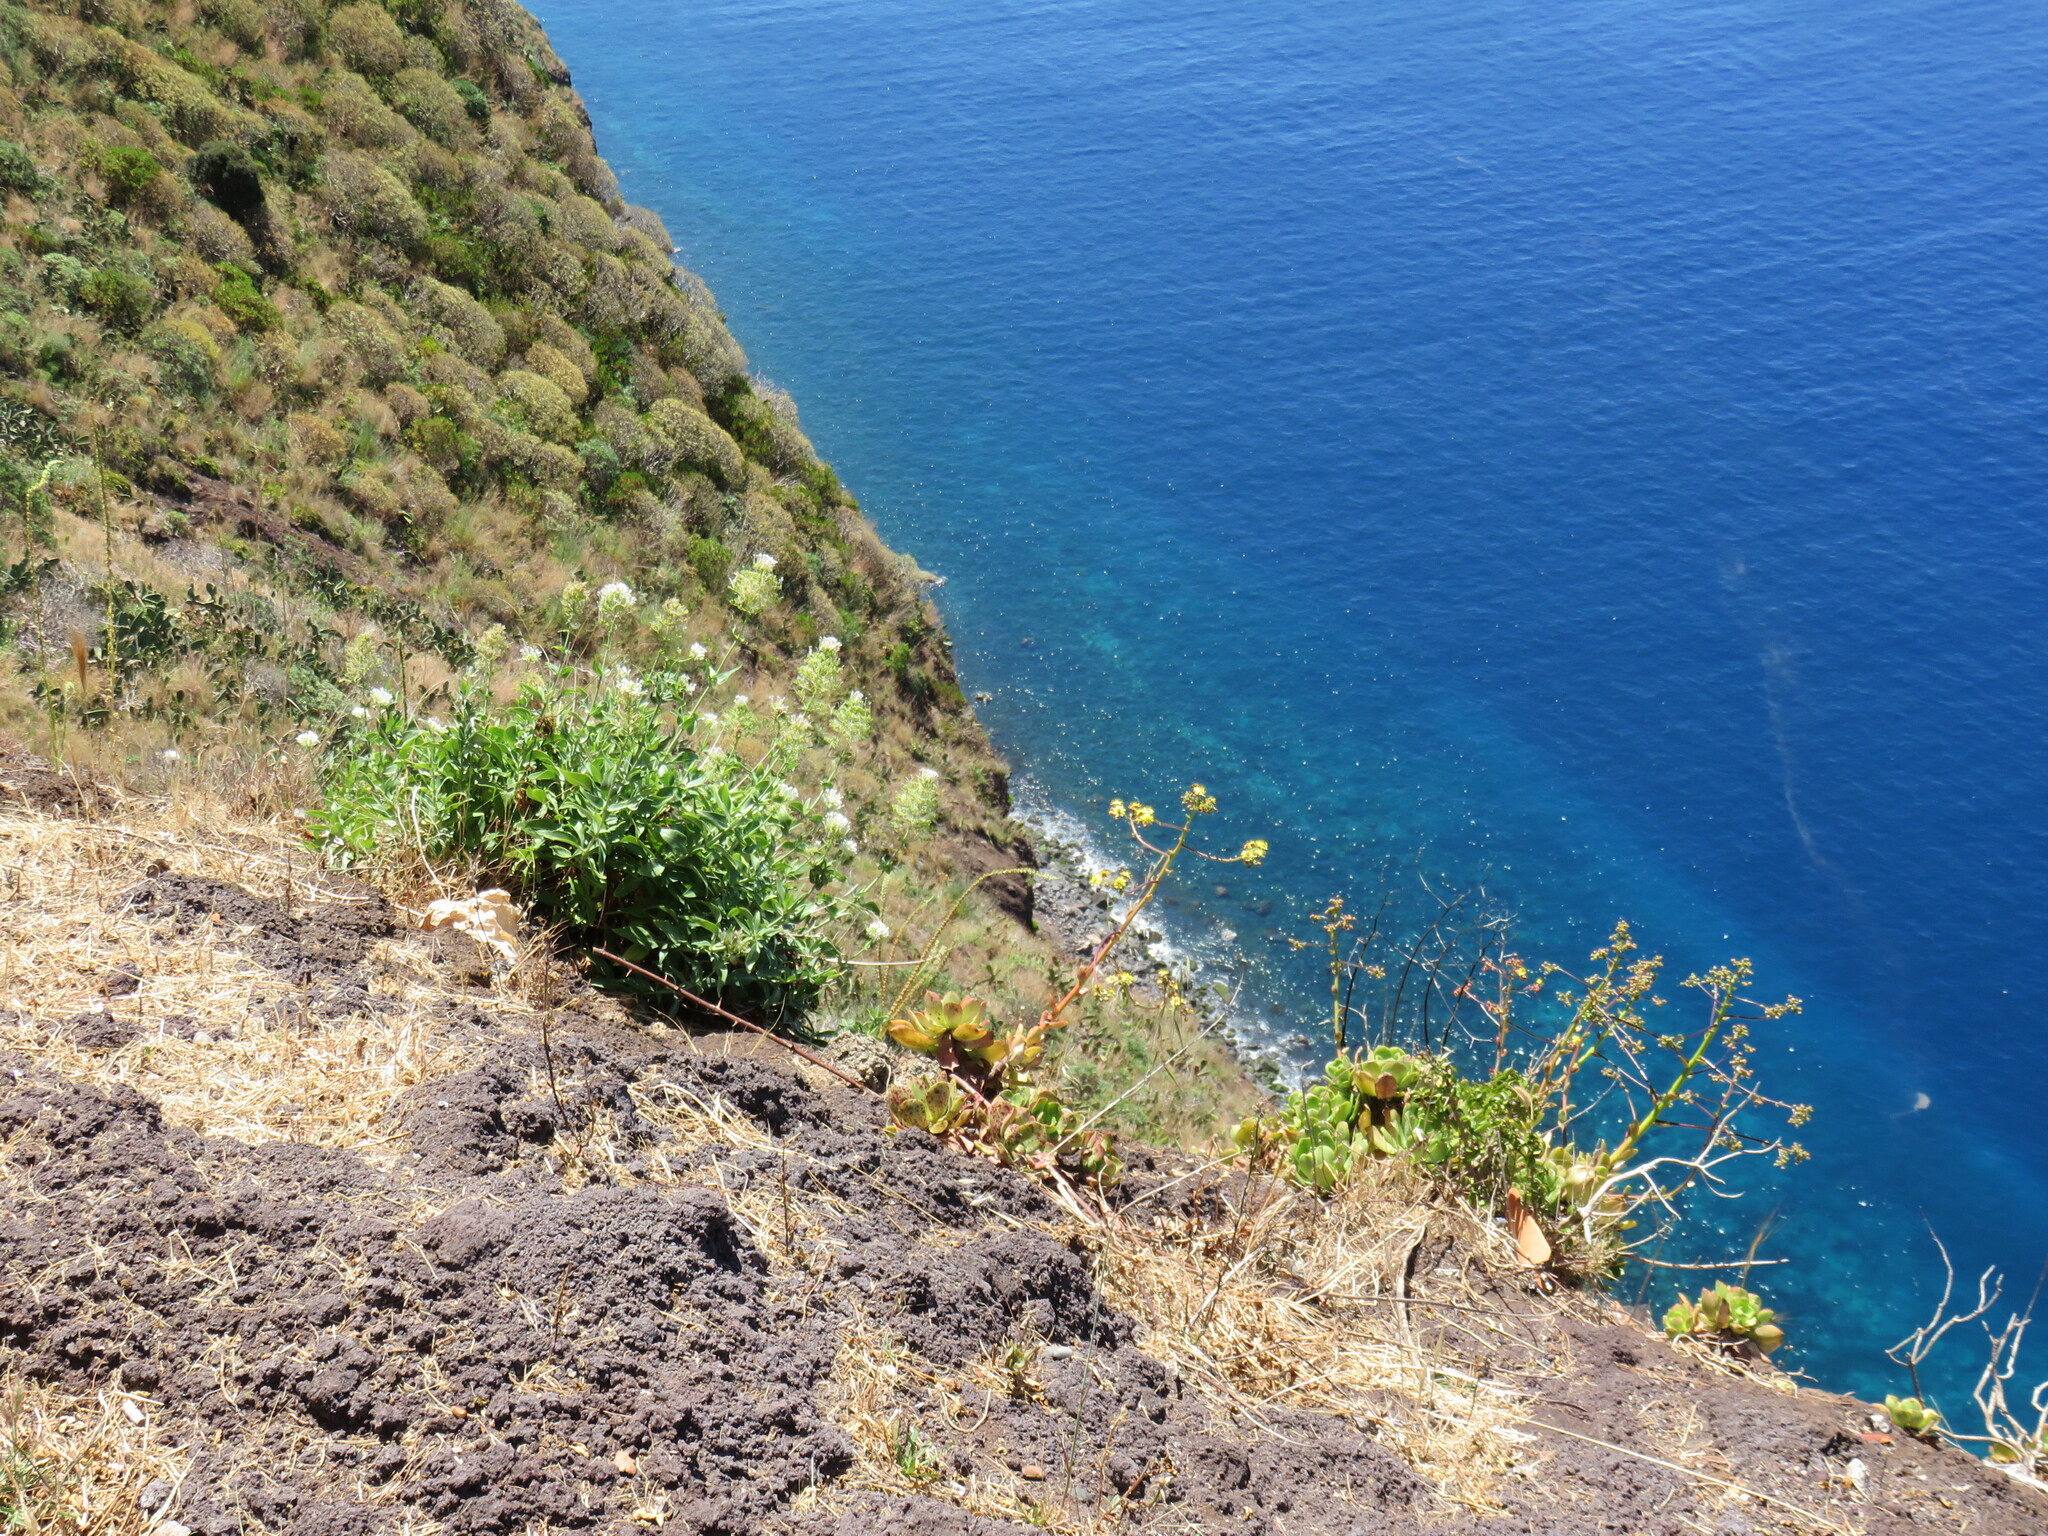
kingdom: Plantae
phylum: Tracheophyta
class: Magnoliopsida
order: Saxifragales
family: Crassulaceae
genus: Aeonium
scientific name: Aeonium glutinosum
